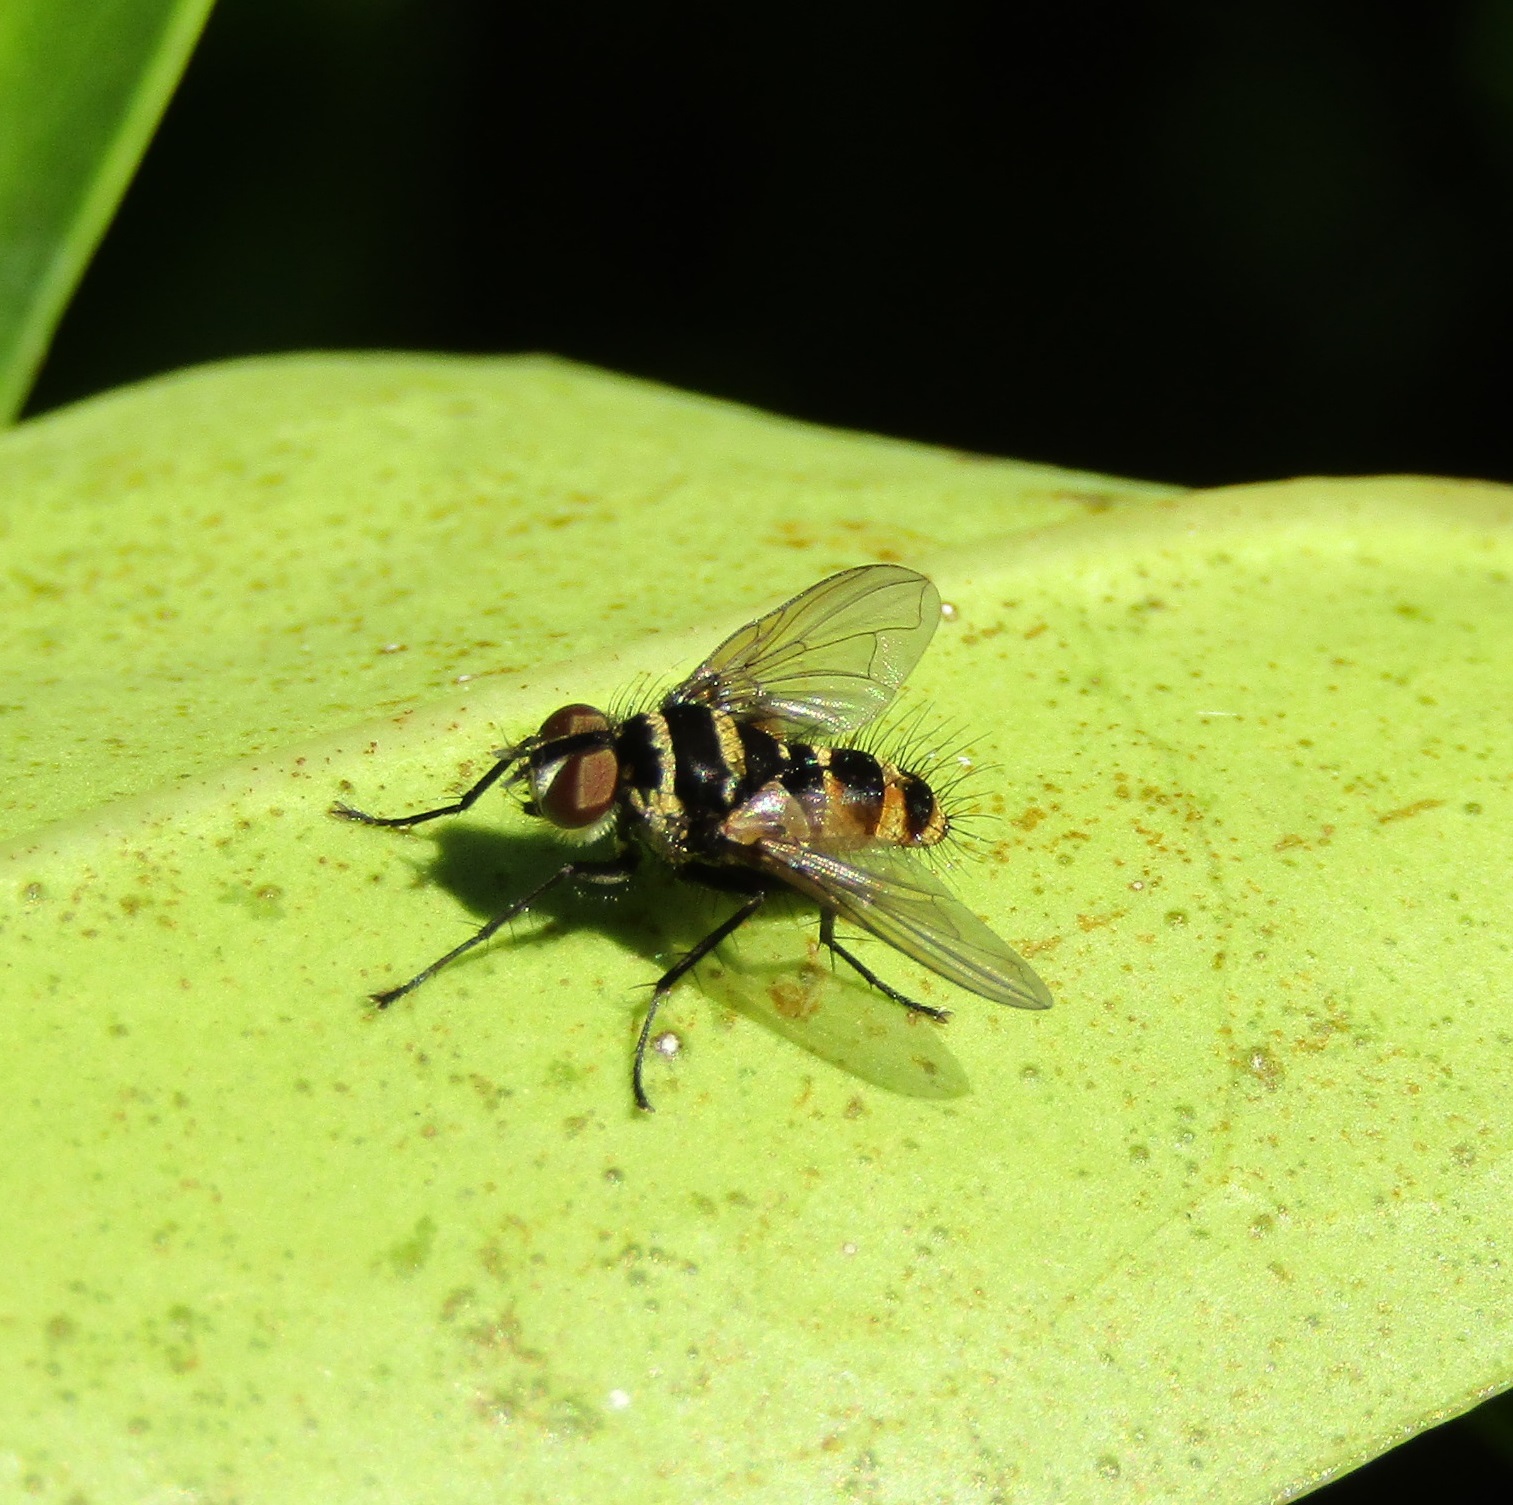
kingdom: Animalia
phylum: Arthropoda
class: Insecta
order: Diptera
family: Tachinidae
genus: Trigonospila
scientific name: Trigonospila brevifacies
